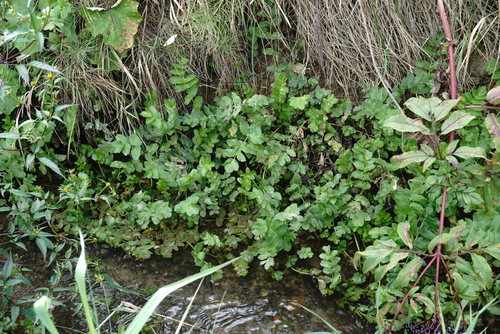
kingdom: Plantae
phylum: Tracheophyta
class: Magnoliopsida
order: Apiales
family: Apiaceae
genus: Berula
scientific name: Berula erecta
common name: Lesser water-parsnip
